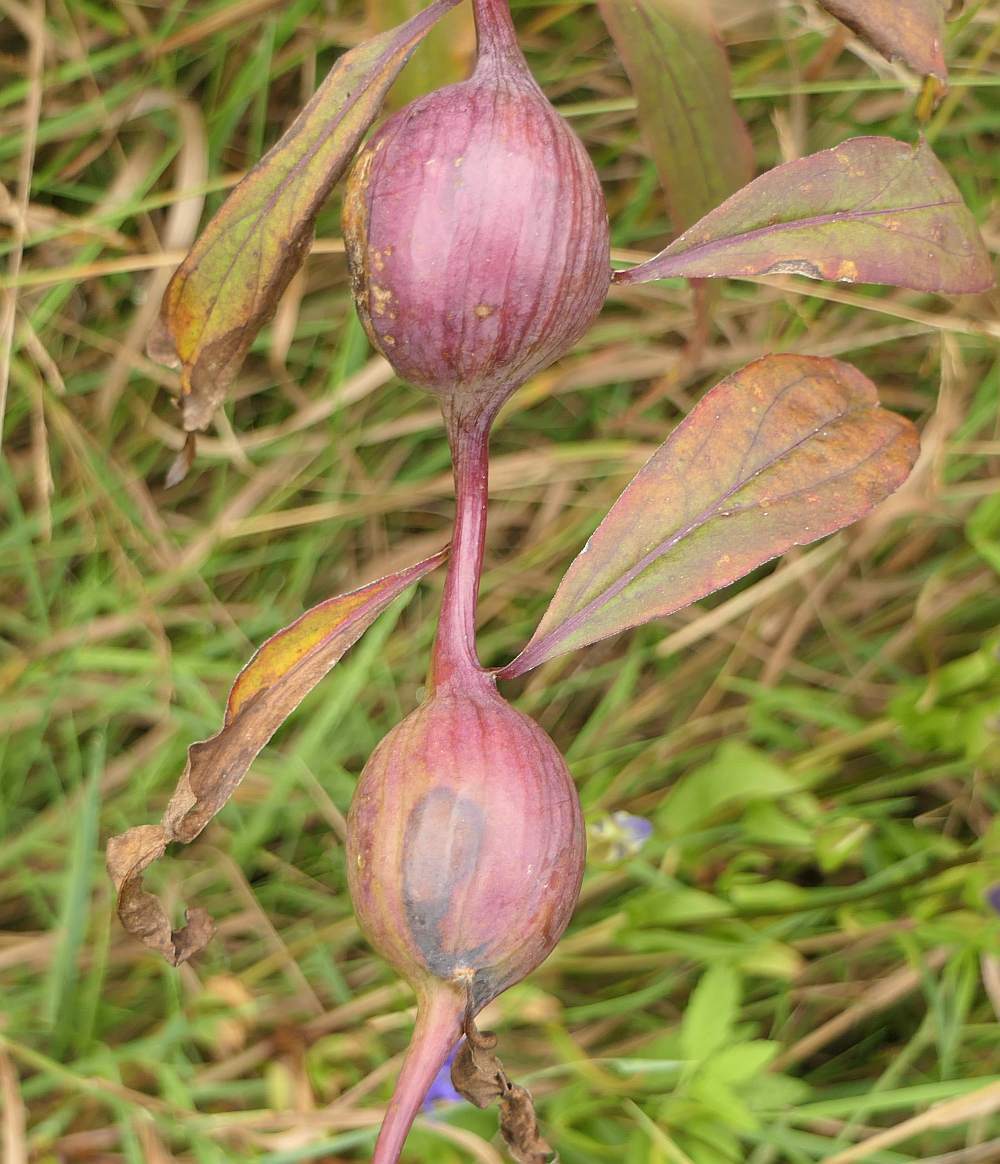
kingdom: Animalia
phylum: Arthropoda
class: Insecta
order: Diptera
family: Tephritidae
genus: Eurosta
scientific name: Eurosta solidaginis
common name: Goldenrod gall fly
